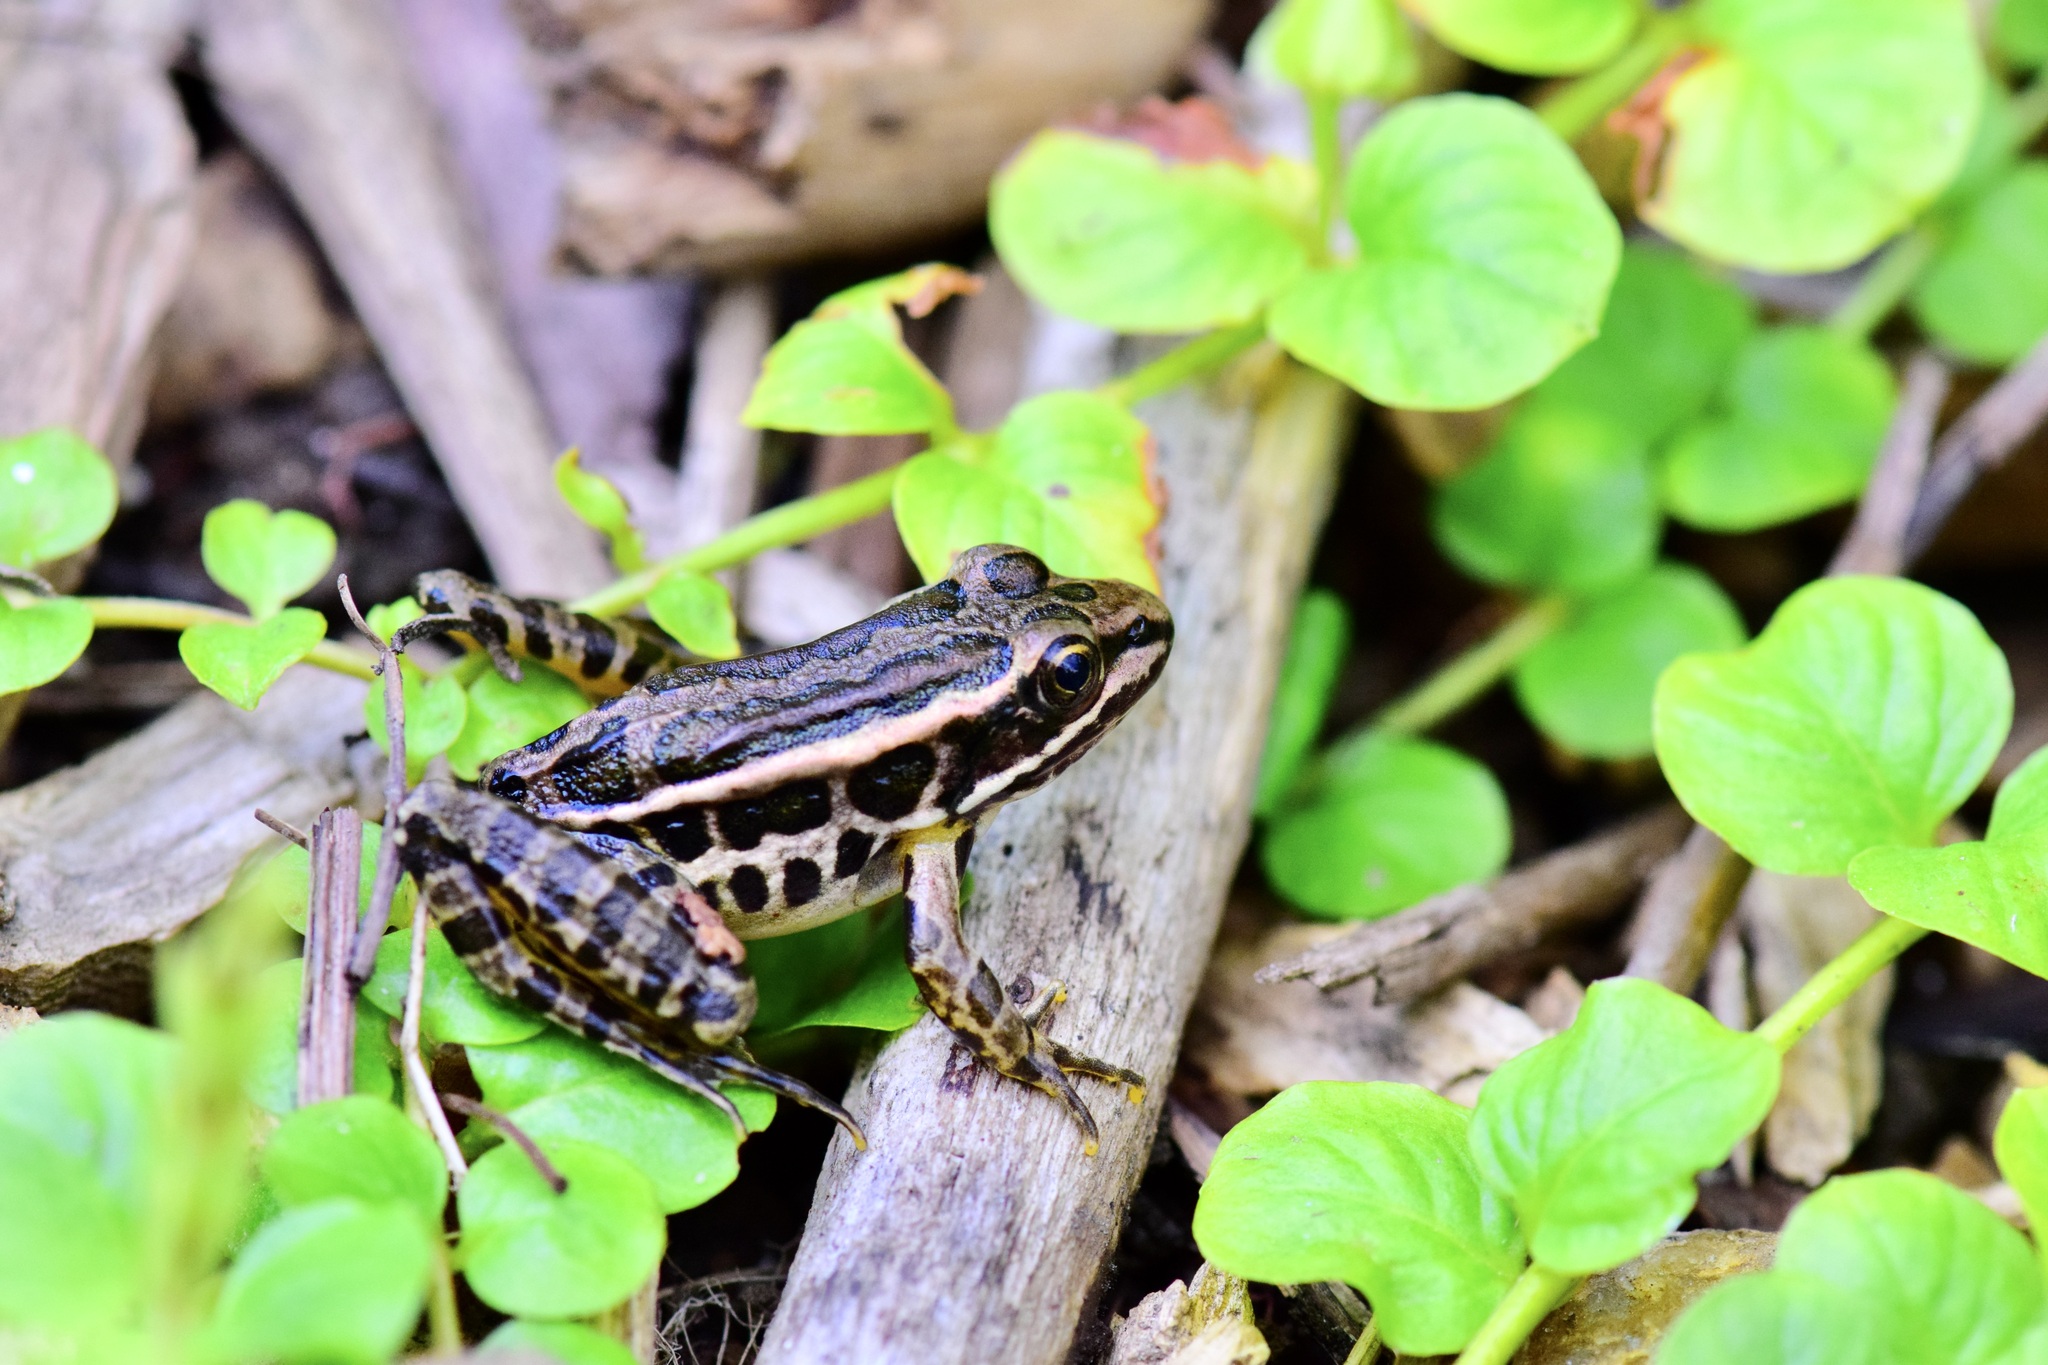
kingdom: Animalia
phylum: Chordata
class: Amphibia
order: Anura
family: Ranidae
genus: Lithobates
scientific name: Lithobates palustris
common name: Pickerel frog
